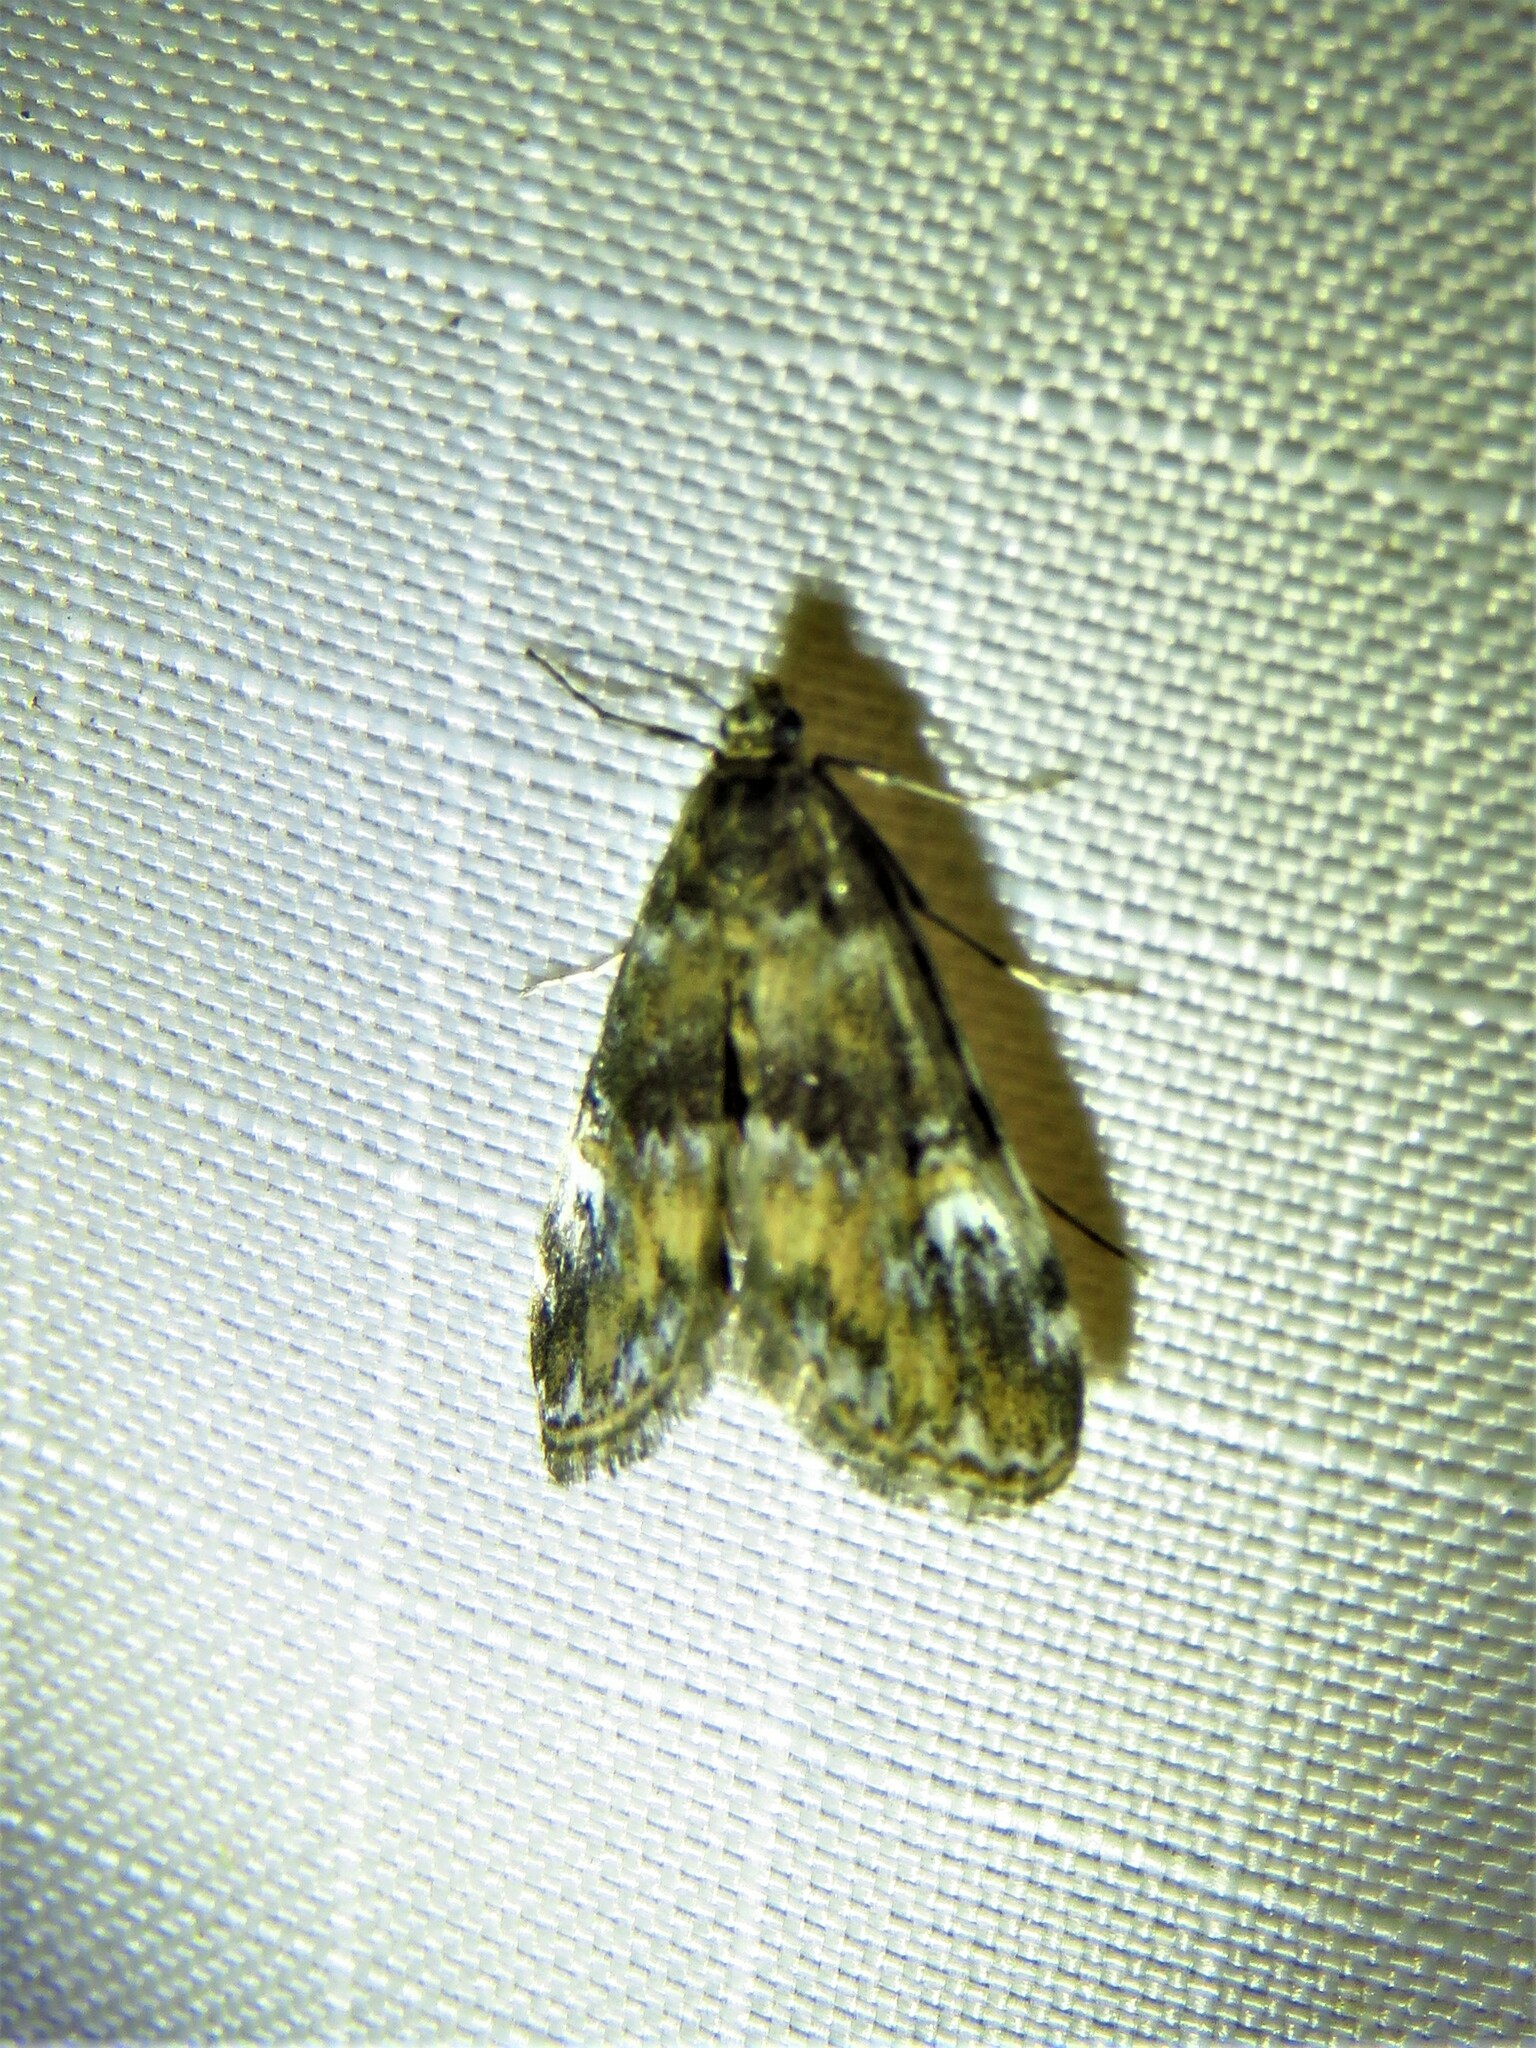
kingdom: Animalia
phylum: Arthropoda
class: Insecta
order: Lepidoptera
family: Crambidae
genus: Elophila
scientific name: Elophila obliteralis
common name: Waterlily leafcutter moth
